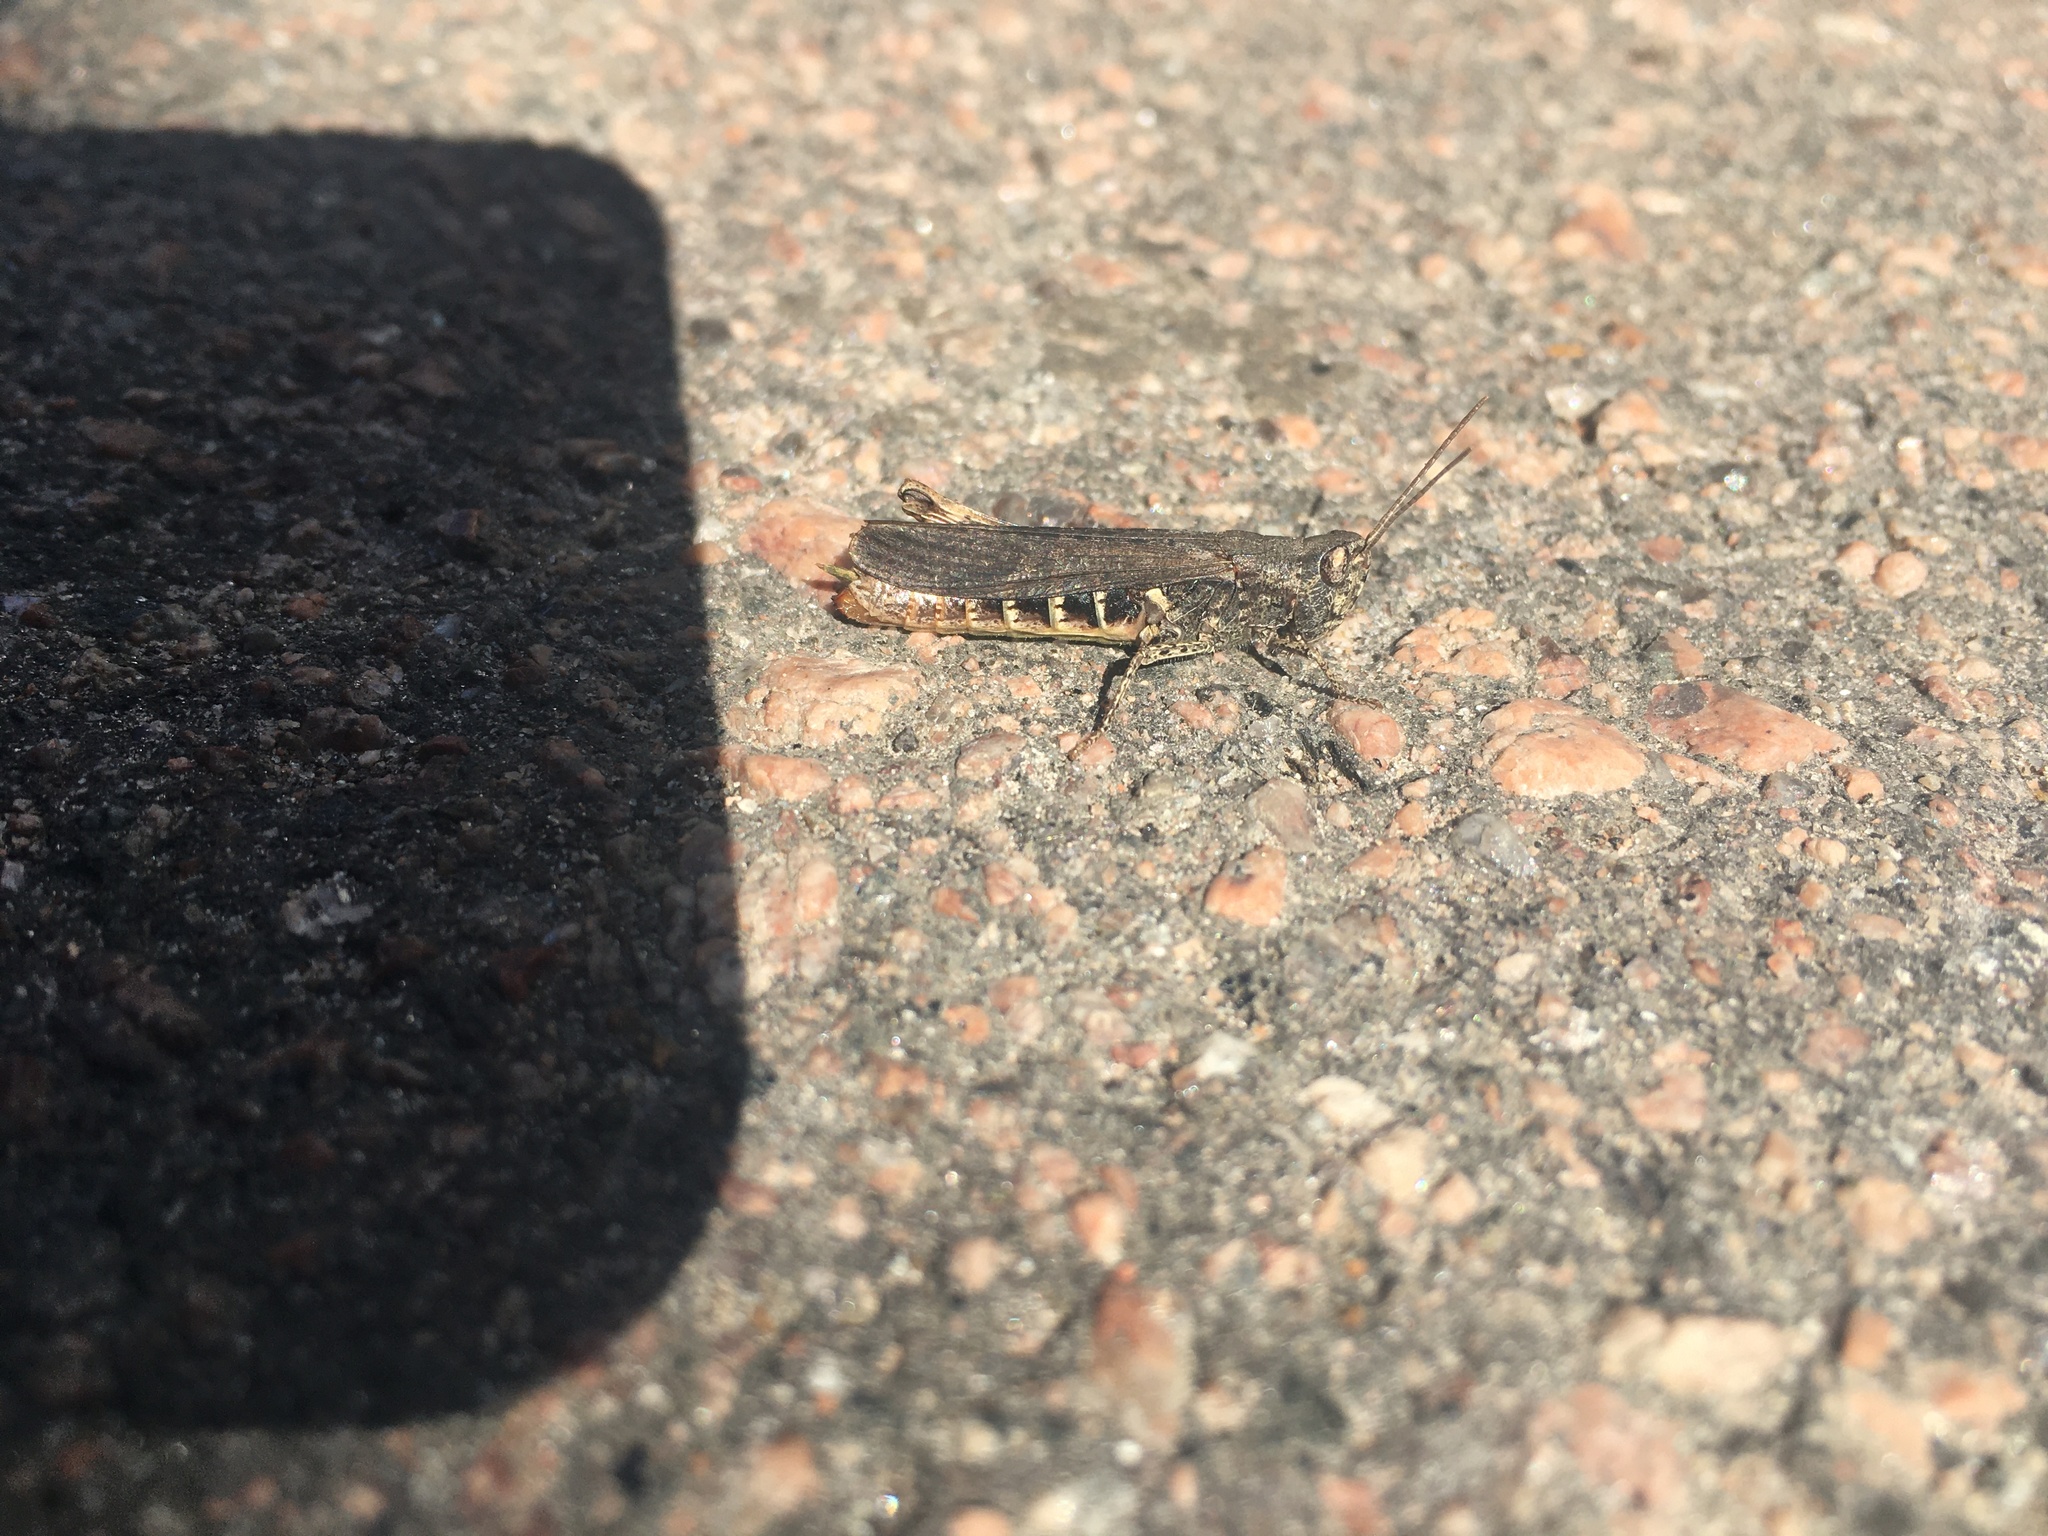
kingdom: Animalia
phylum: Arthropoda
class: Insecta
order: Orthoptera
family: Acrididae
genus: Chorthippus
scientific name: Chorthippus brunneus
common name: Field grasshopper
